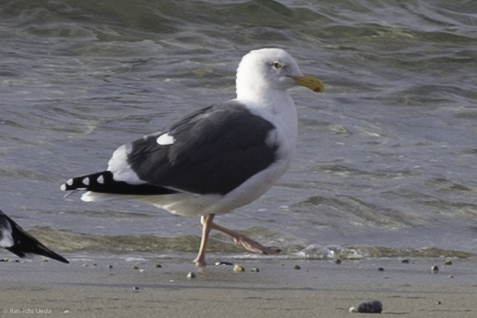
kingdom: Animalia
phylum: Chordata
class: Aves
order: Charadriiformes
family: Laridae
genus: Larus
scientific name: Larus occidentalis
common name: Western gull
